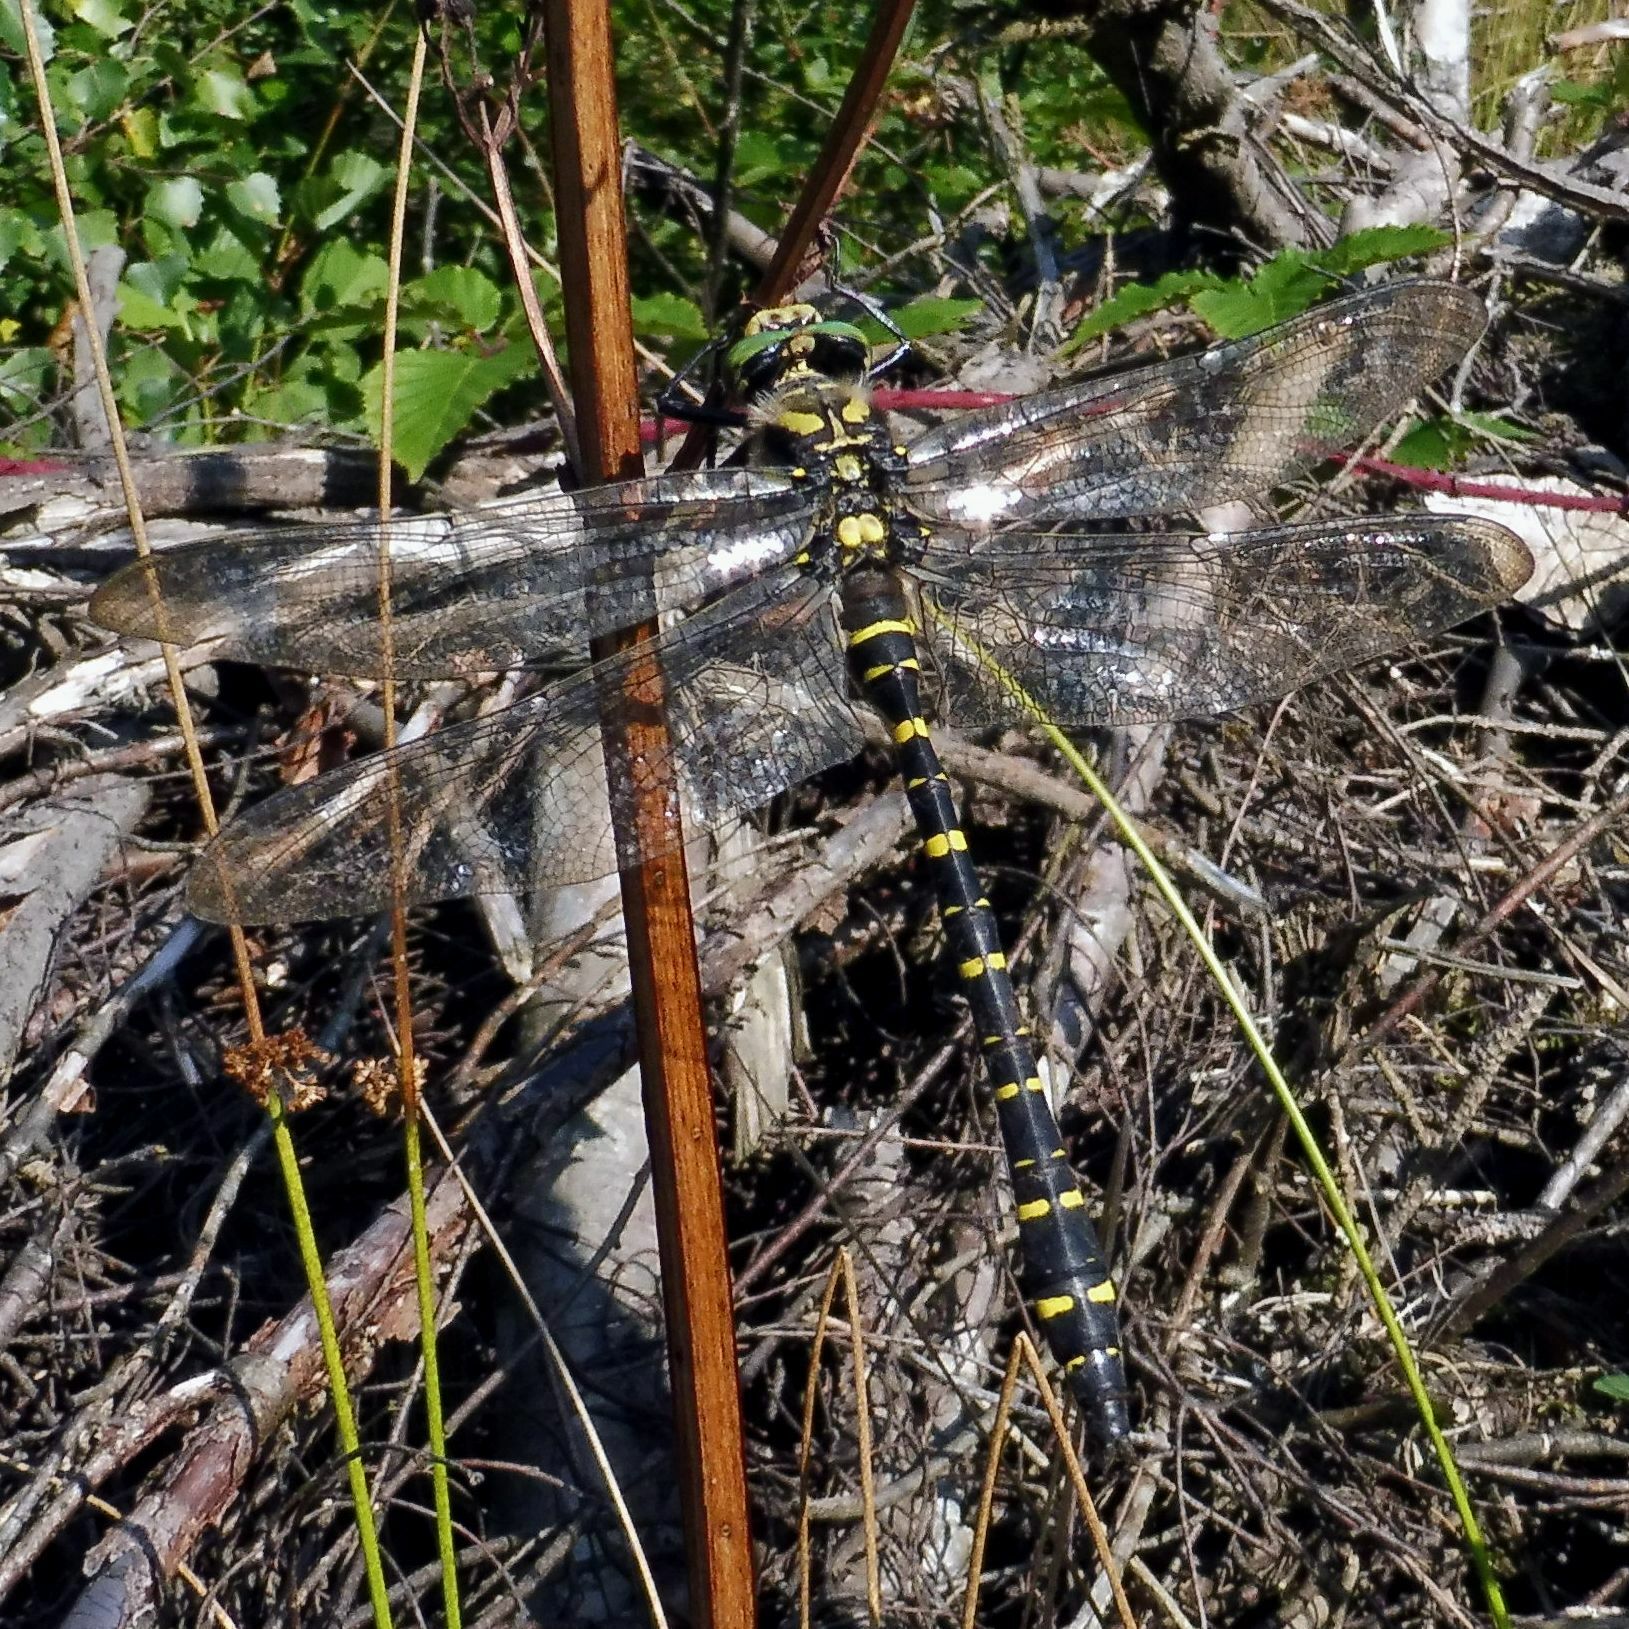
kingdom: Animalia
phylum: Arthropoda
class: Insecta
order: Odonata
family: Cordulegastridae
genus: Cordulegaster
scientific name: Cordulegaster boltonii
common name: Golden-ringed dragonfly
